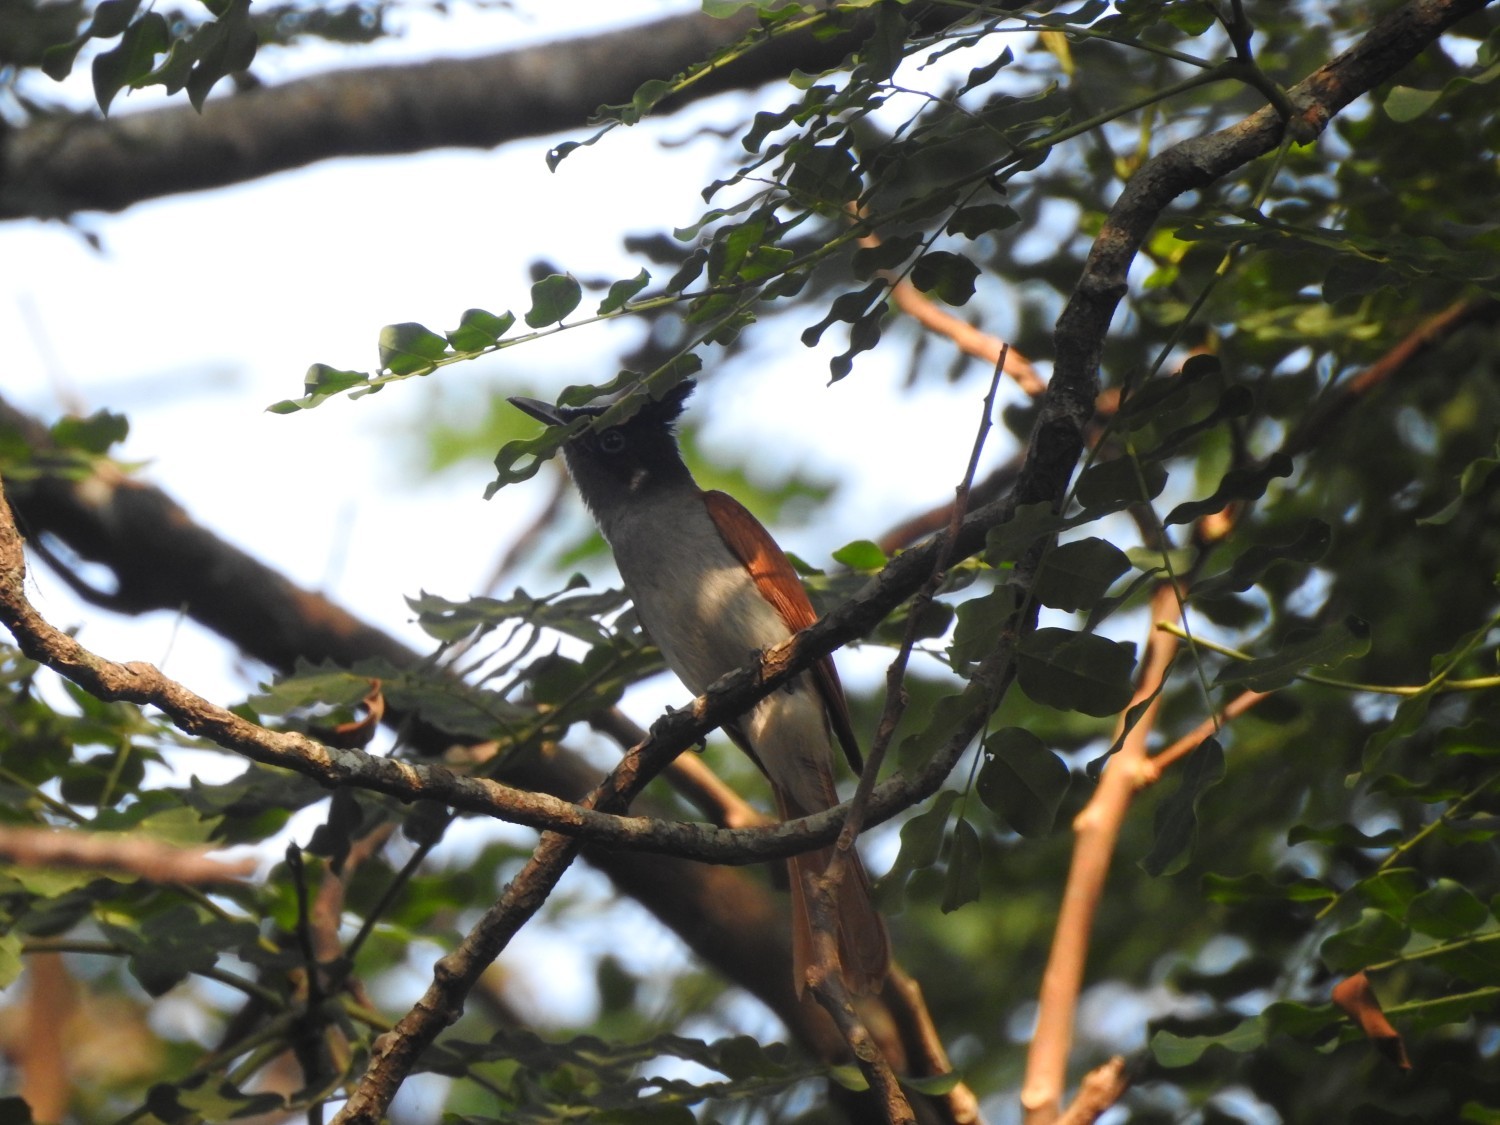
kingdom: Animalia
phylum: Chordata
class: Aves
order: Passeriformes
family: Monarchidae
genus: Terpsiphone
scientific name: Terpsiphone paradisi
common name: Indian paradise flycatcher
